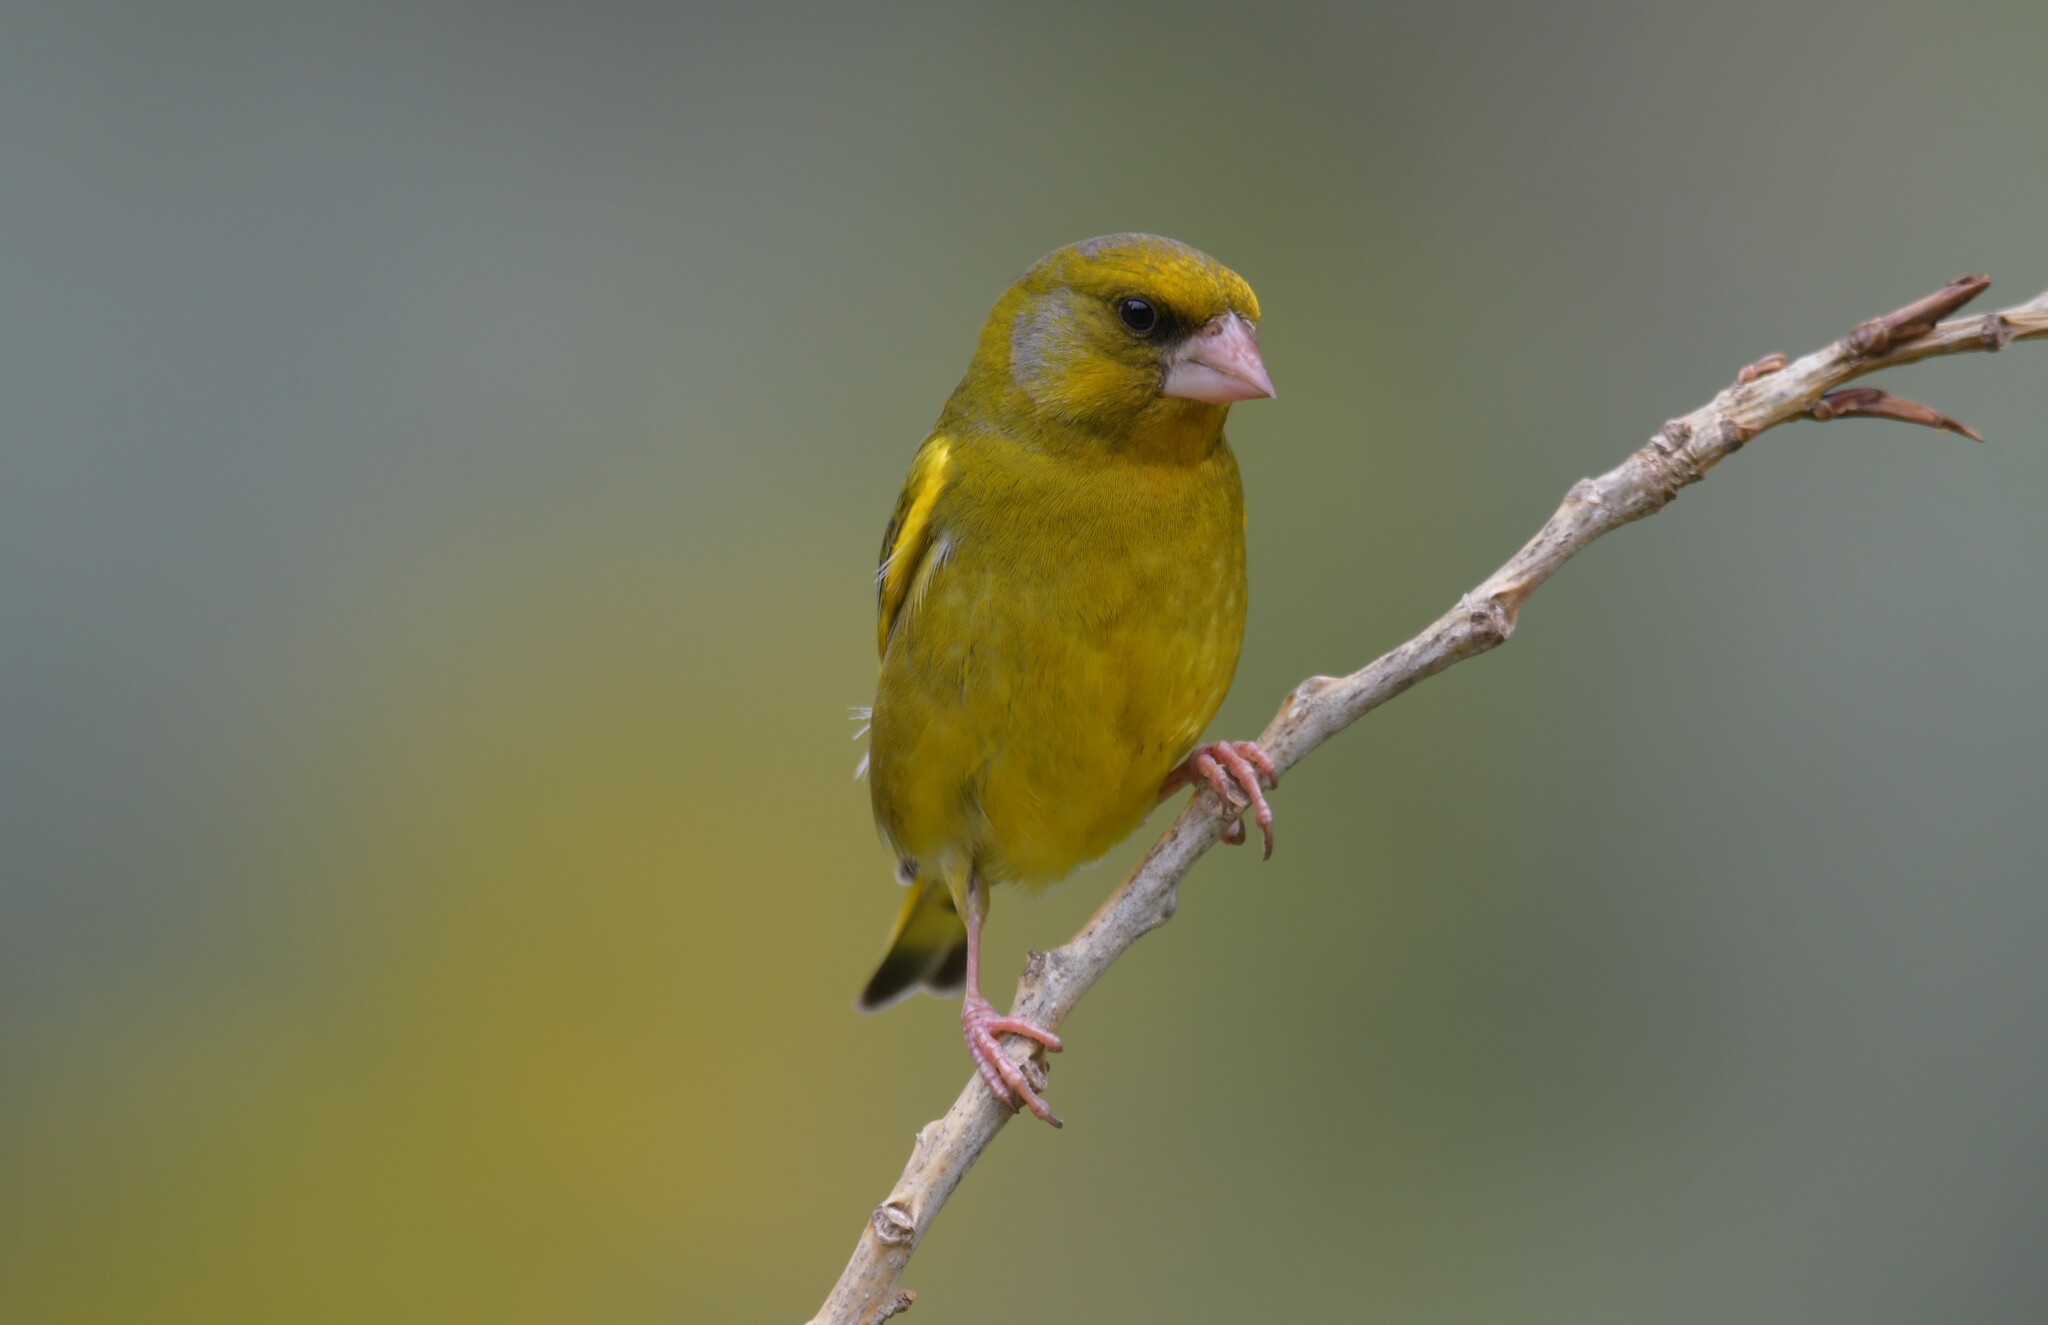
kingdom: Plantae
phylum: Tracheophyta
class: Liliopsida
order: Poales
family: Poaceae
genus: Chloris
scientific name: Chloris chloris
